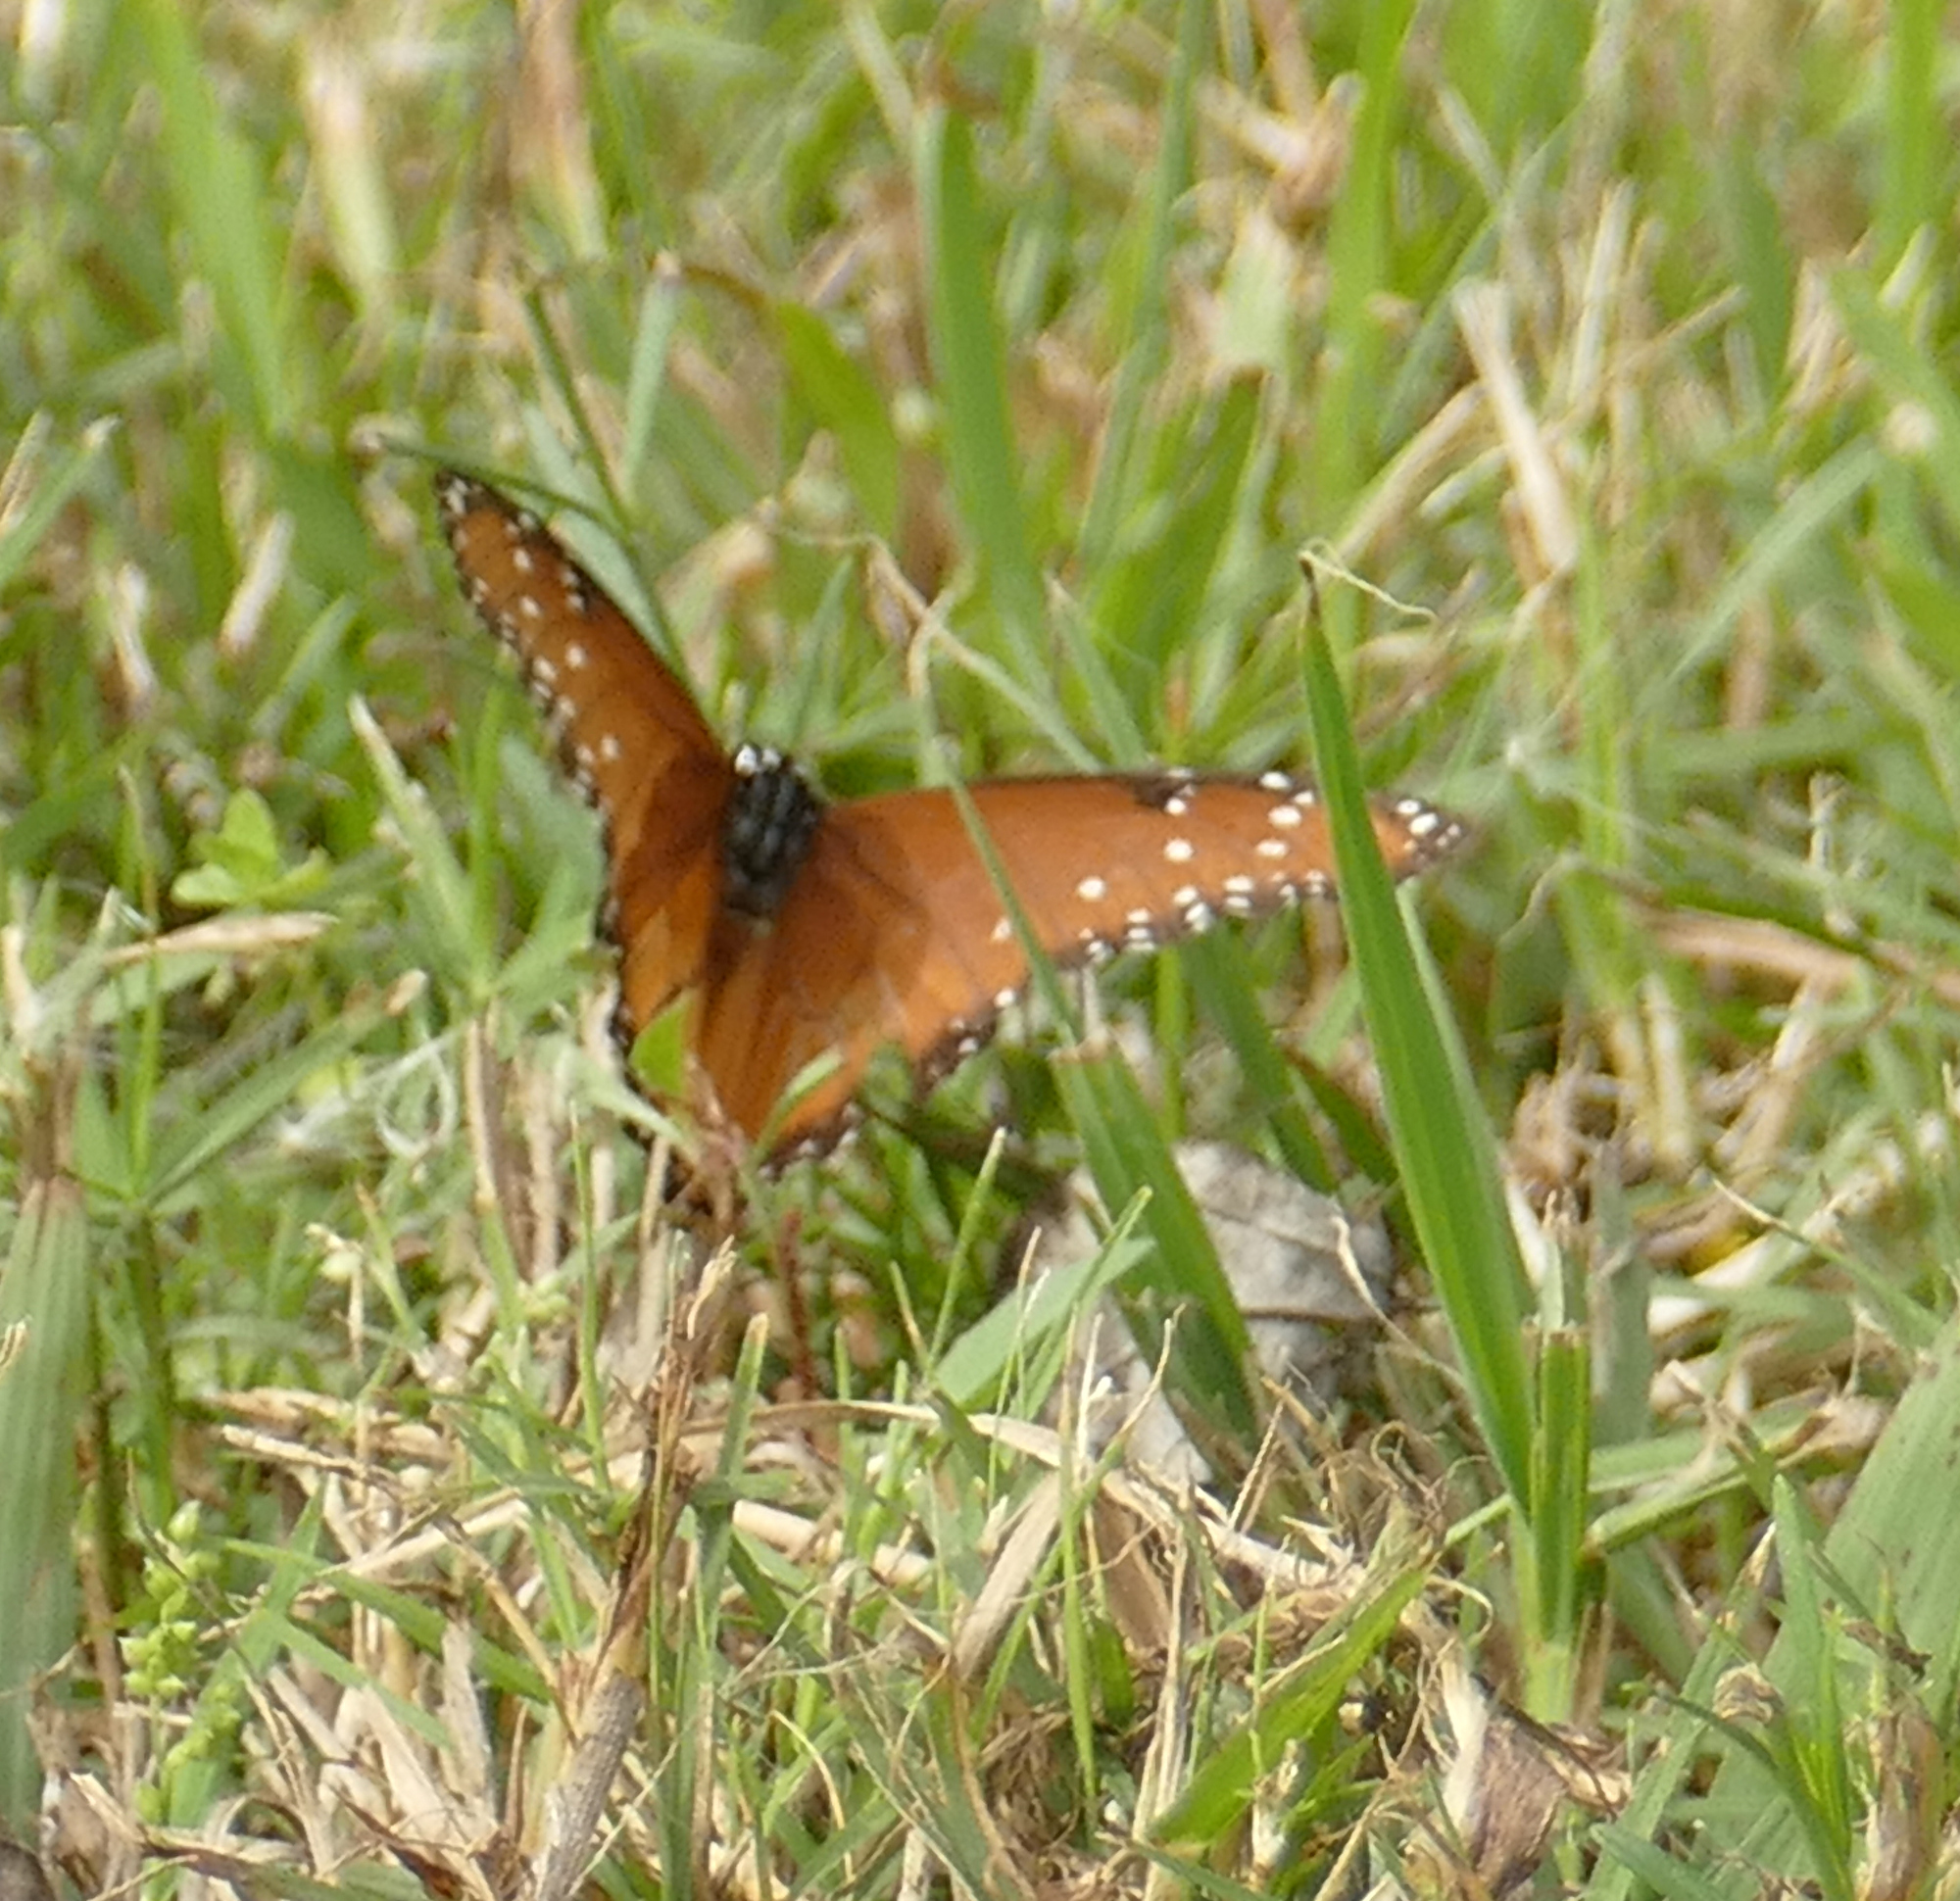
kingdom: Animalia
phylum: Arthropoda
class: Insecta
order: Lepidoptera
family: Nymphalidae
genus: Danaus
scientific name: Danaus gilippus
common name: Queen
